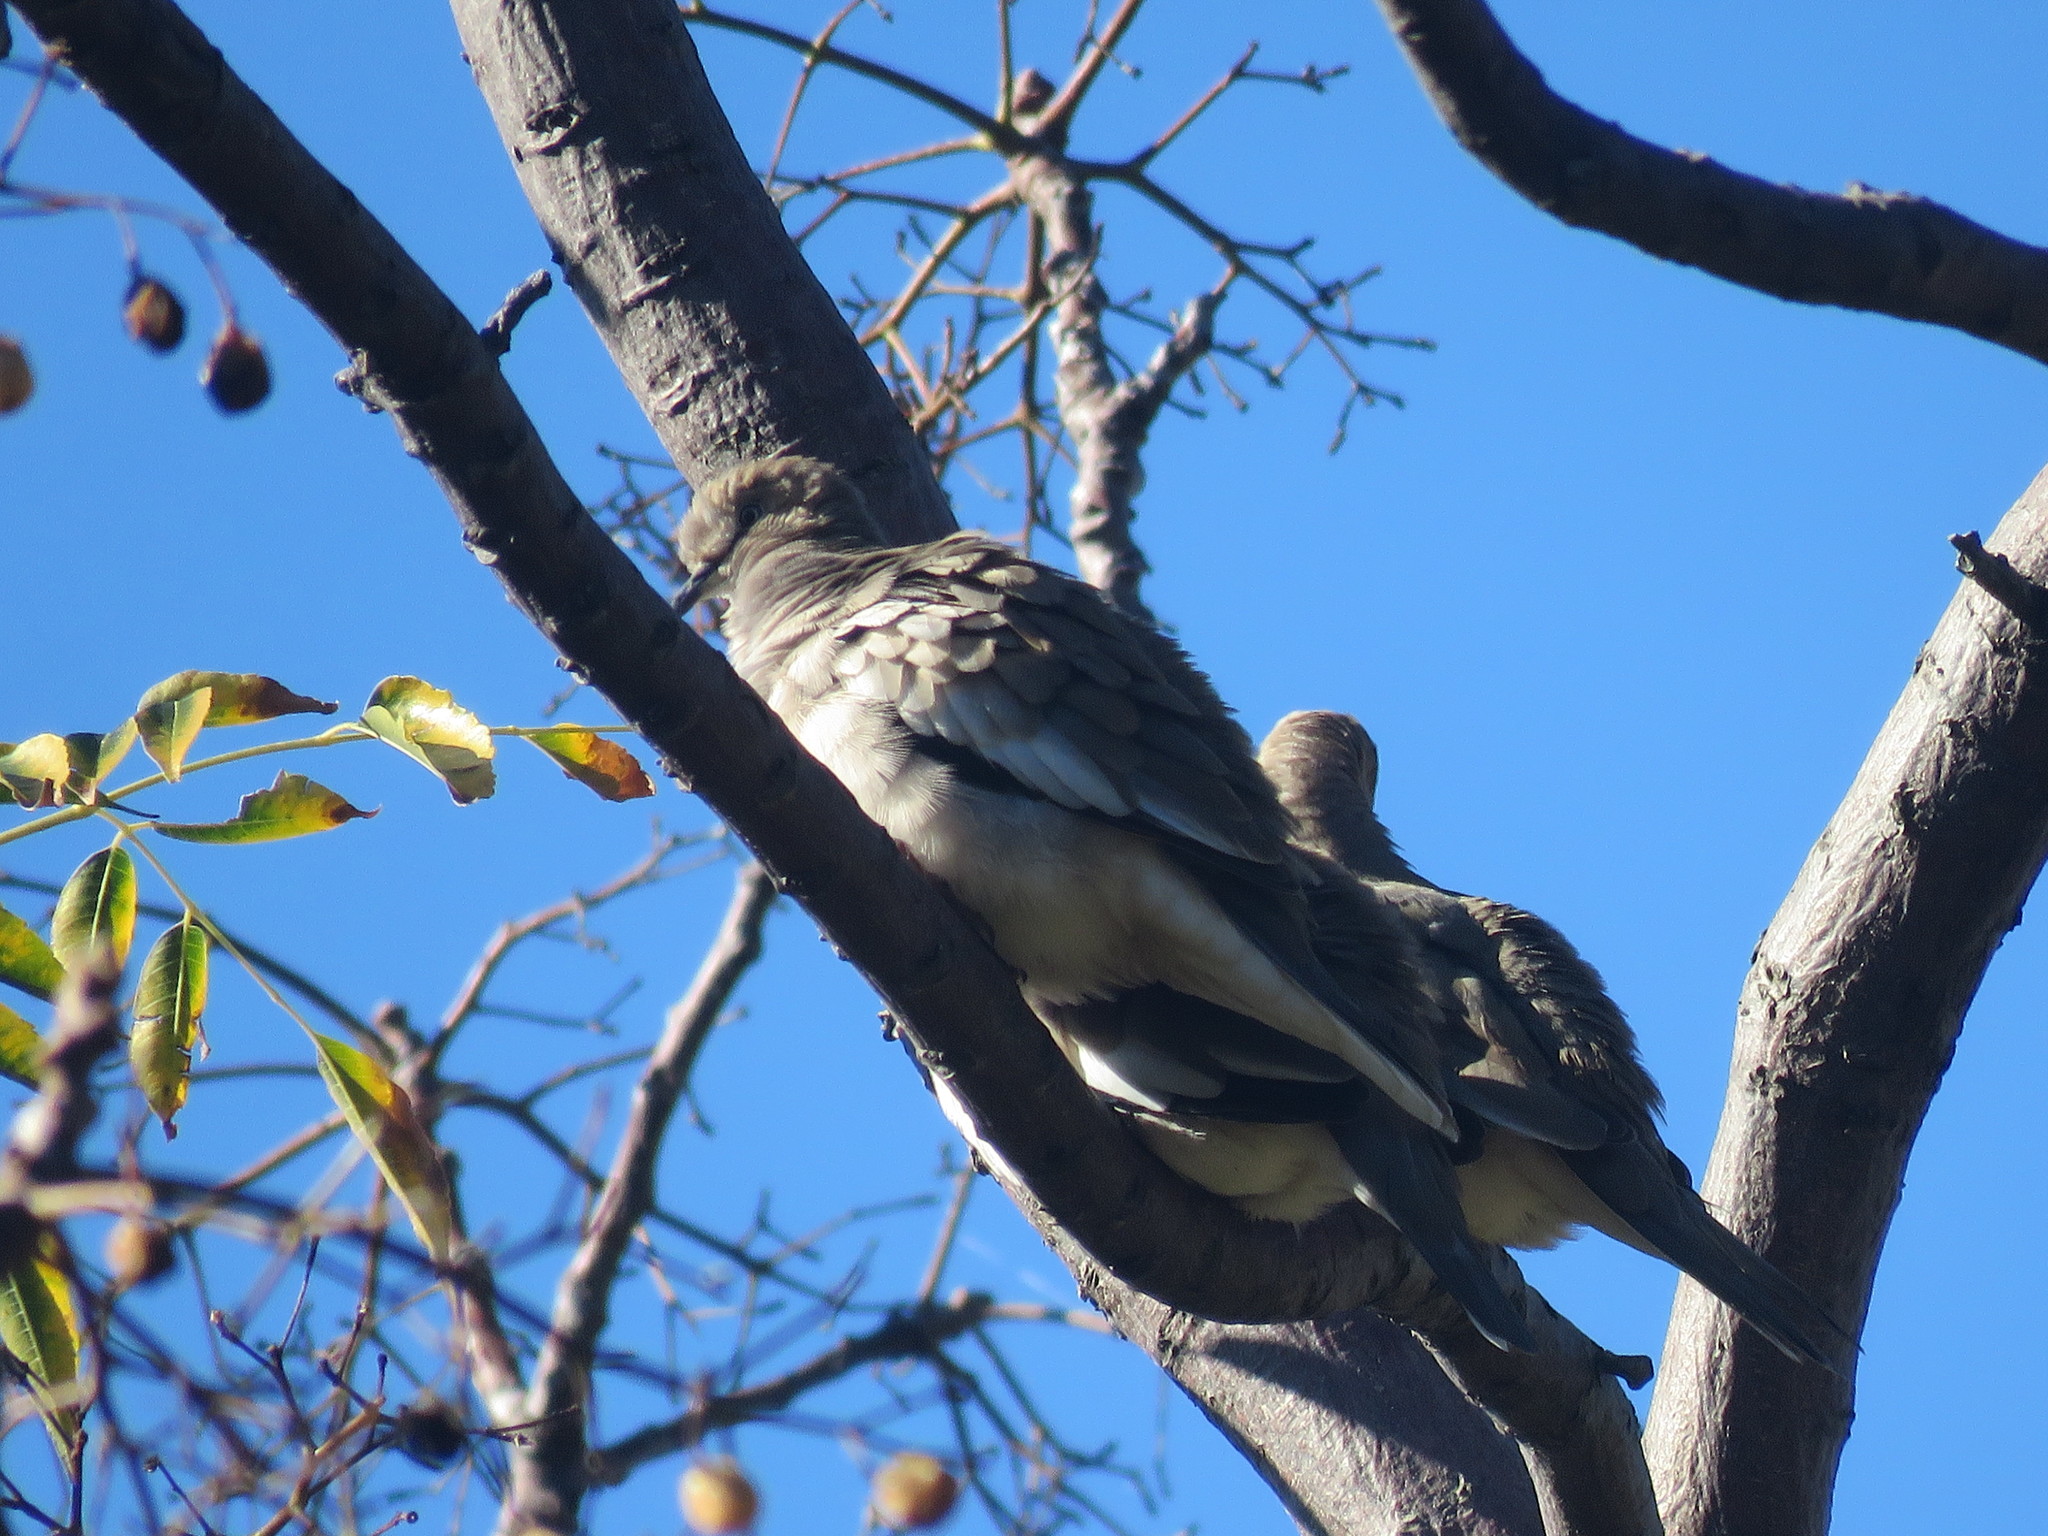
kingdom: Animalia
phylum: Chordata
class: Aves
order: Columbiformes
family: Columbidae
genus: Columbina
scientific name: Columbina picui
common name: Picui ground dove
